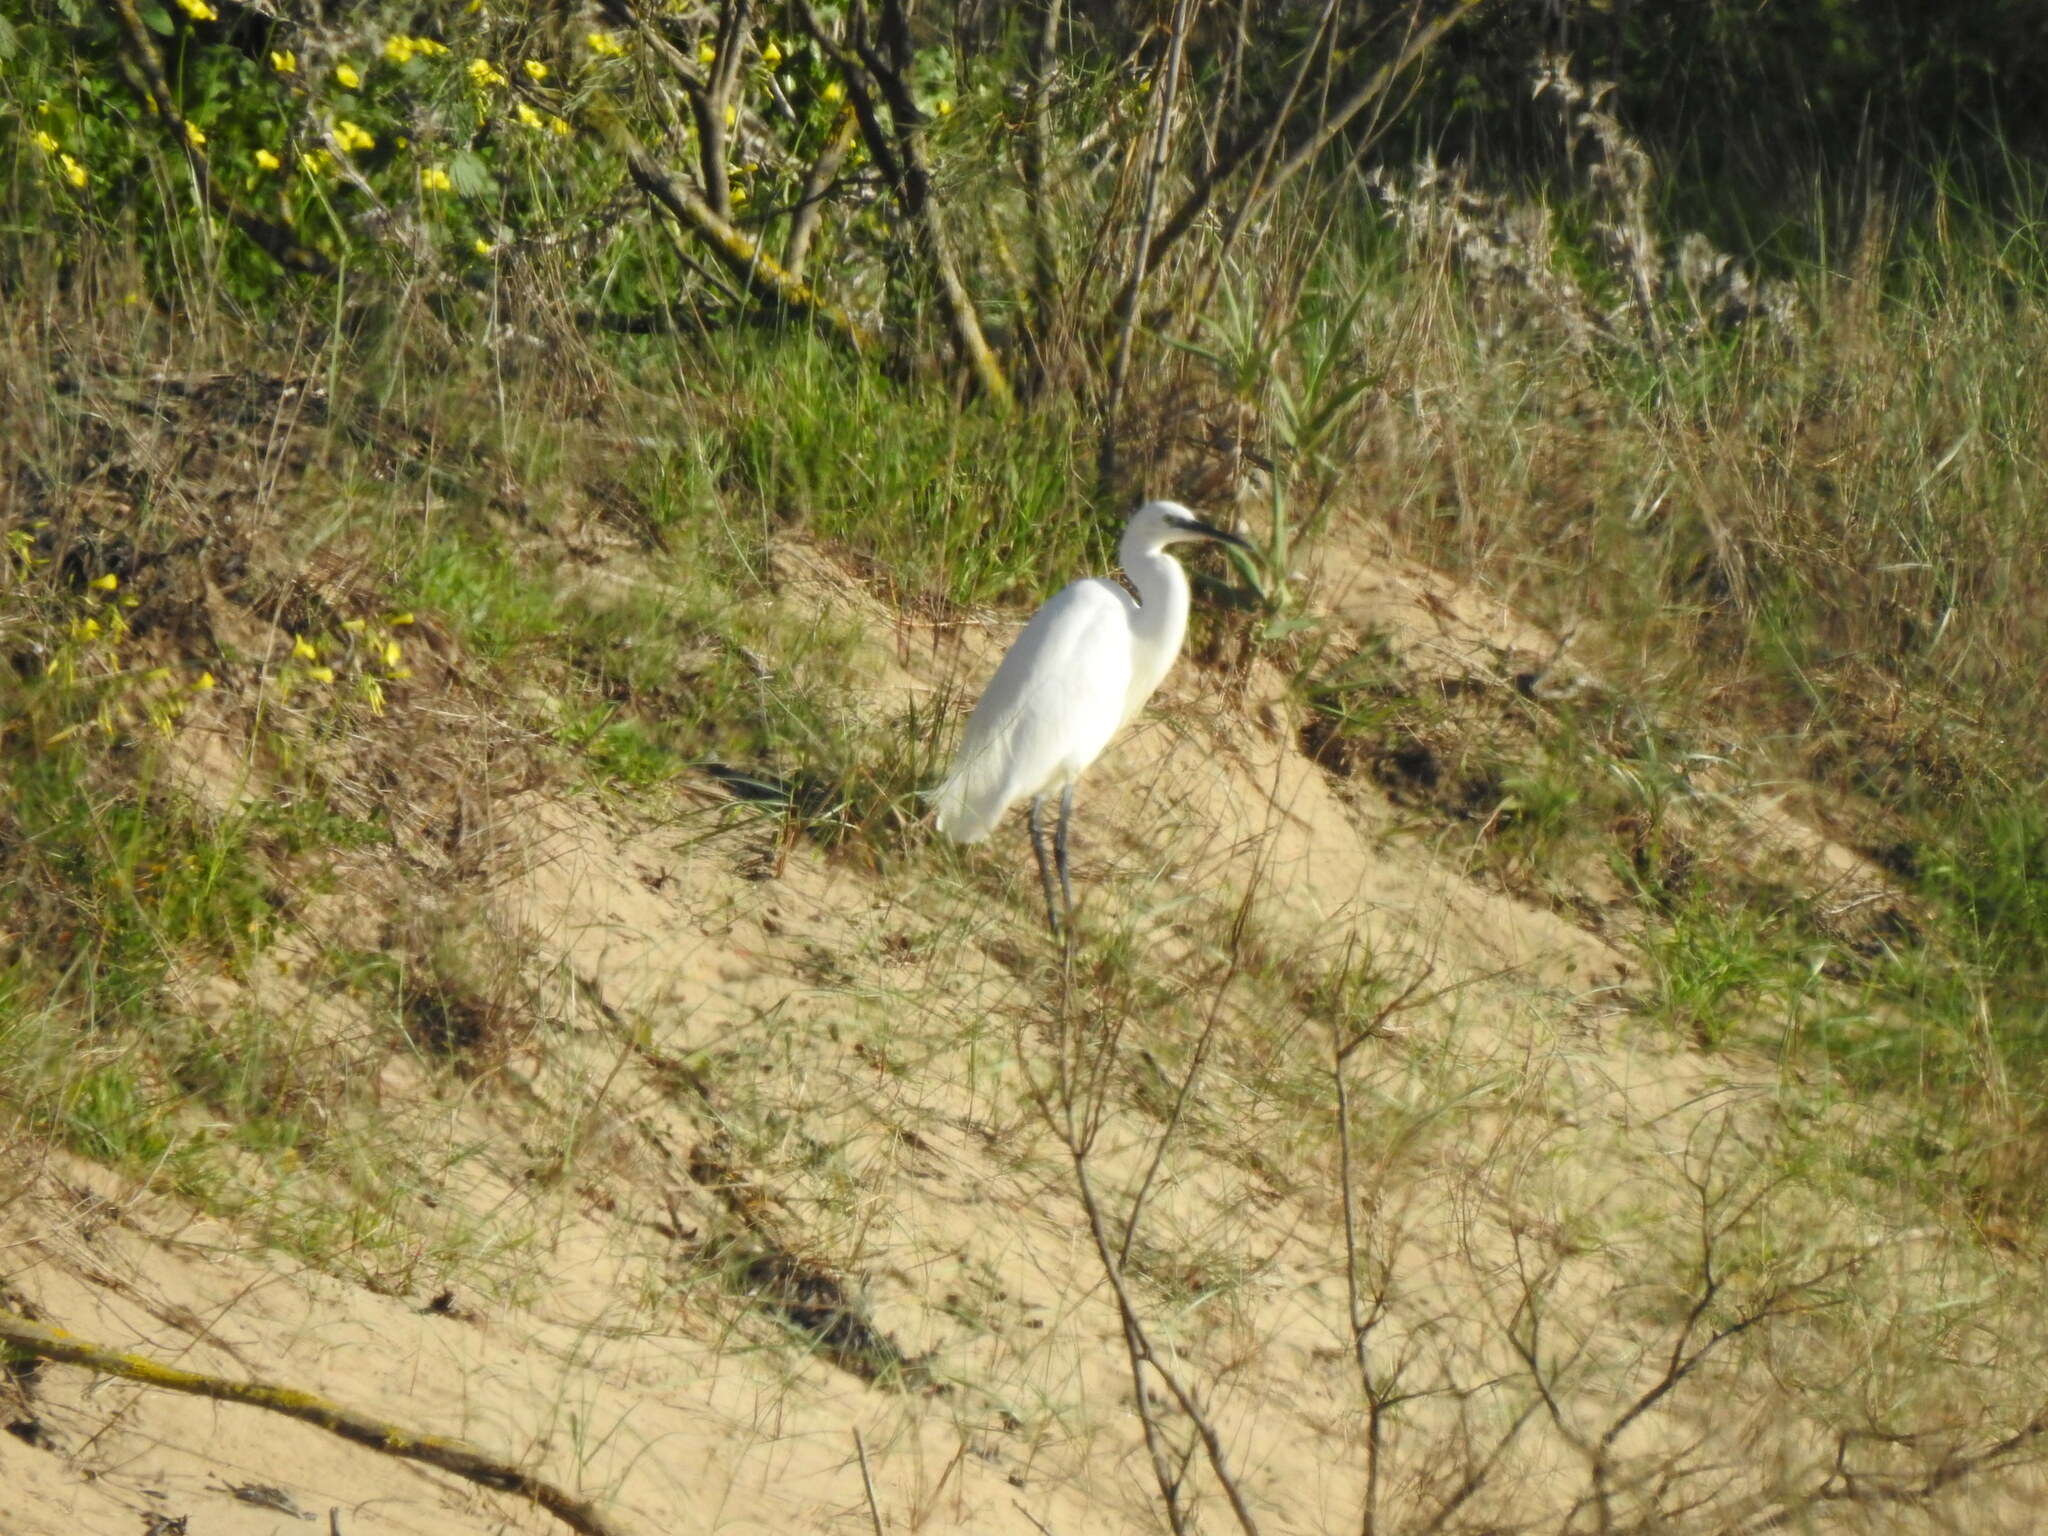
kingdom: Animalia
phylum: Chordata
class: Aves
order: Pelecaniformes
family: Ardeidae
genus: Egretta
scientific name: Egretta garzetta
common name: Little egret
